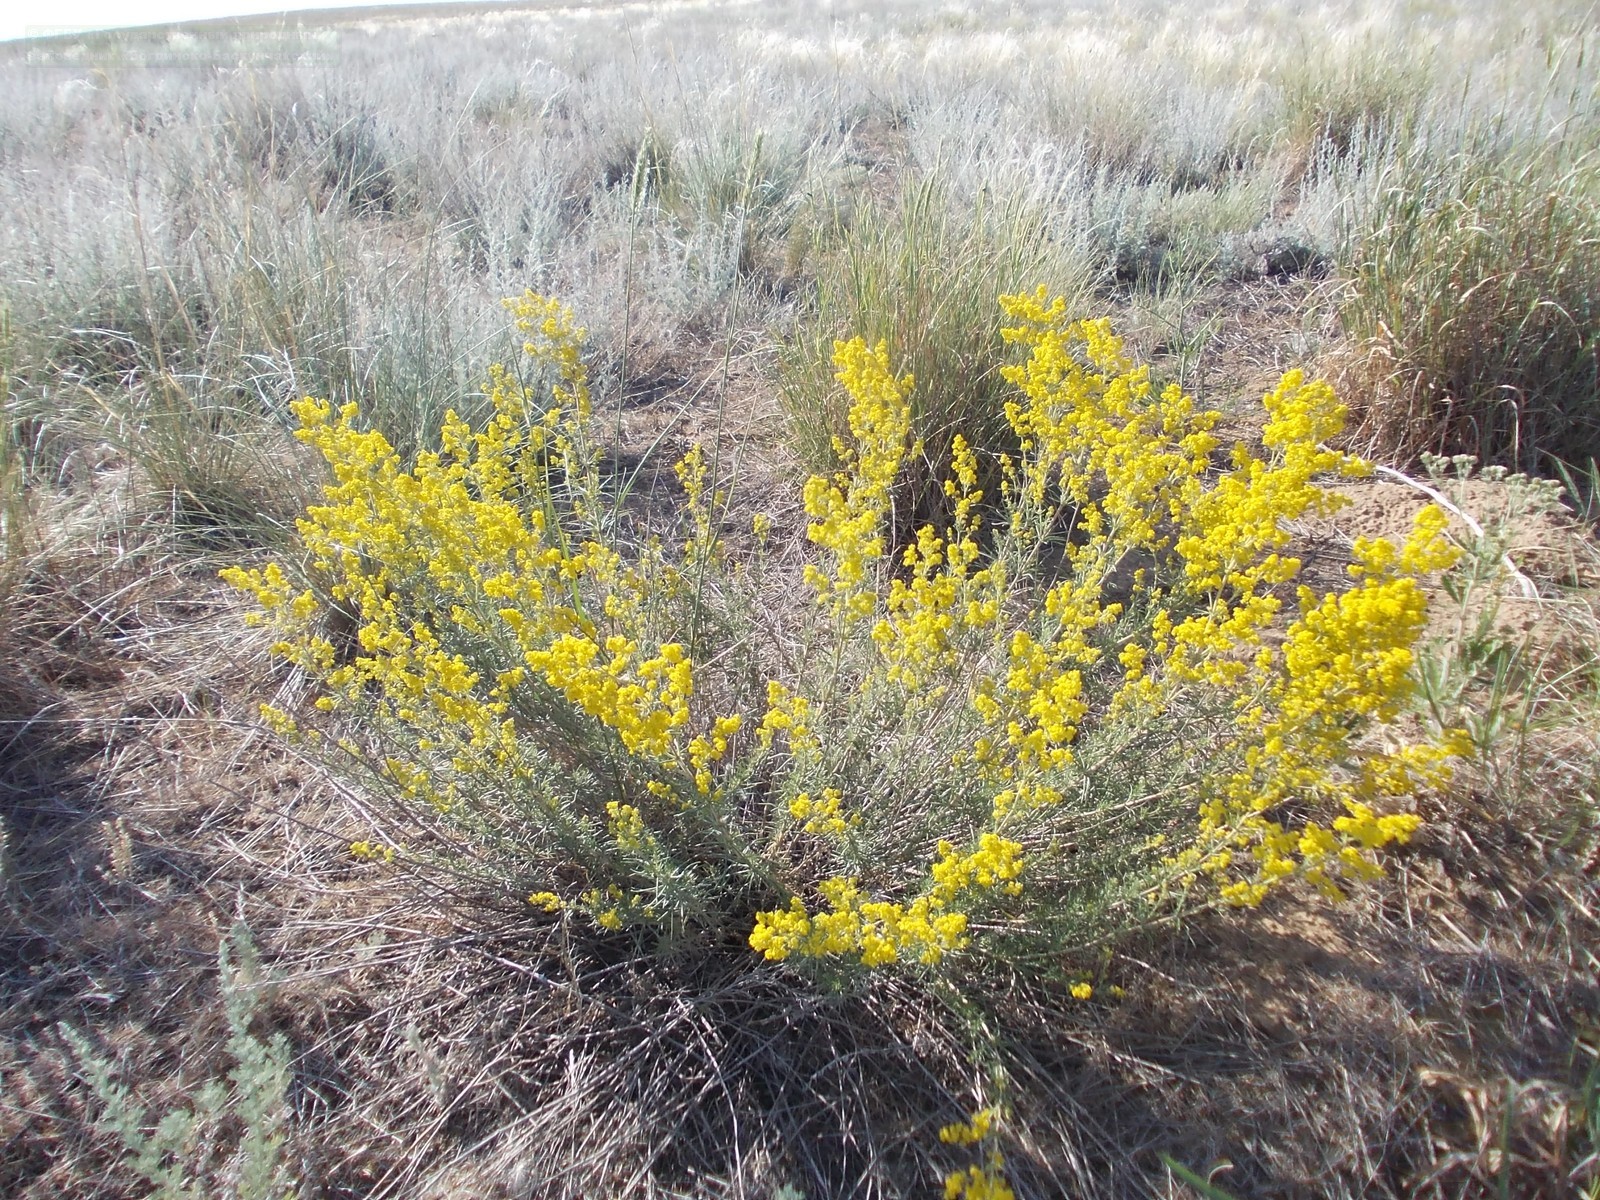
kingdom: Plantae
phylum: Tracheophyta
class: Magnoliopsida
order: Gentianales
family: Rubiaceae
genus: Galium
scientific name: Galium verum
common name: Lady's bedstraw
